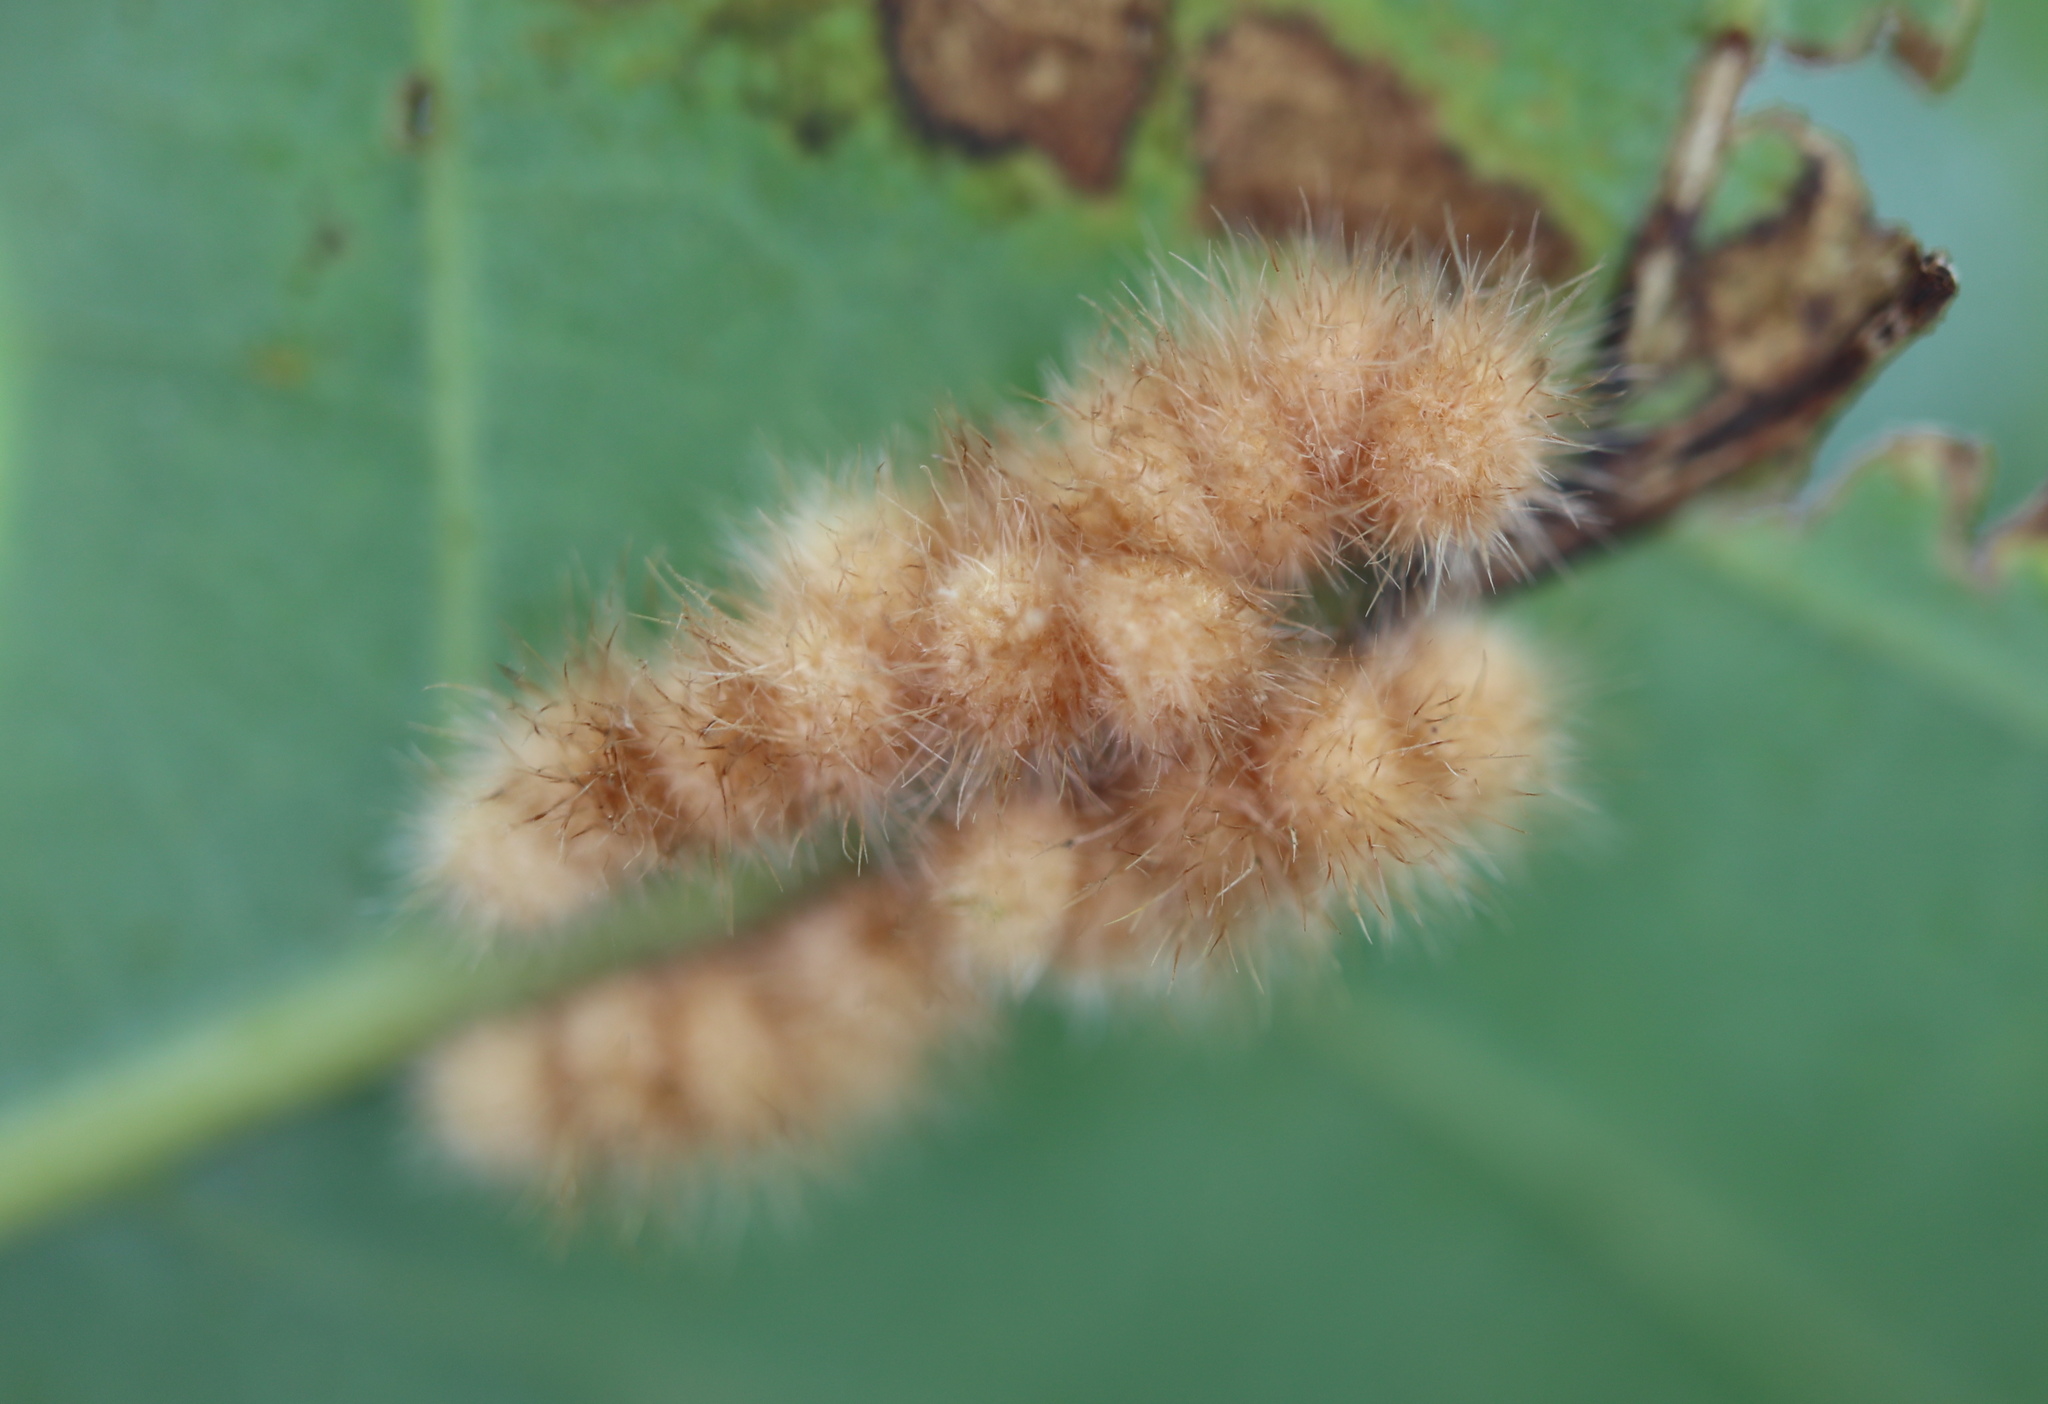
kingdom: Animalia
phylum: Arthropoda
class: Insecta
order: Hymenoptera
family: Cynipidae
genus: Andricus
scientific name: Andricus
